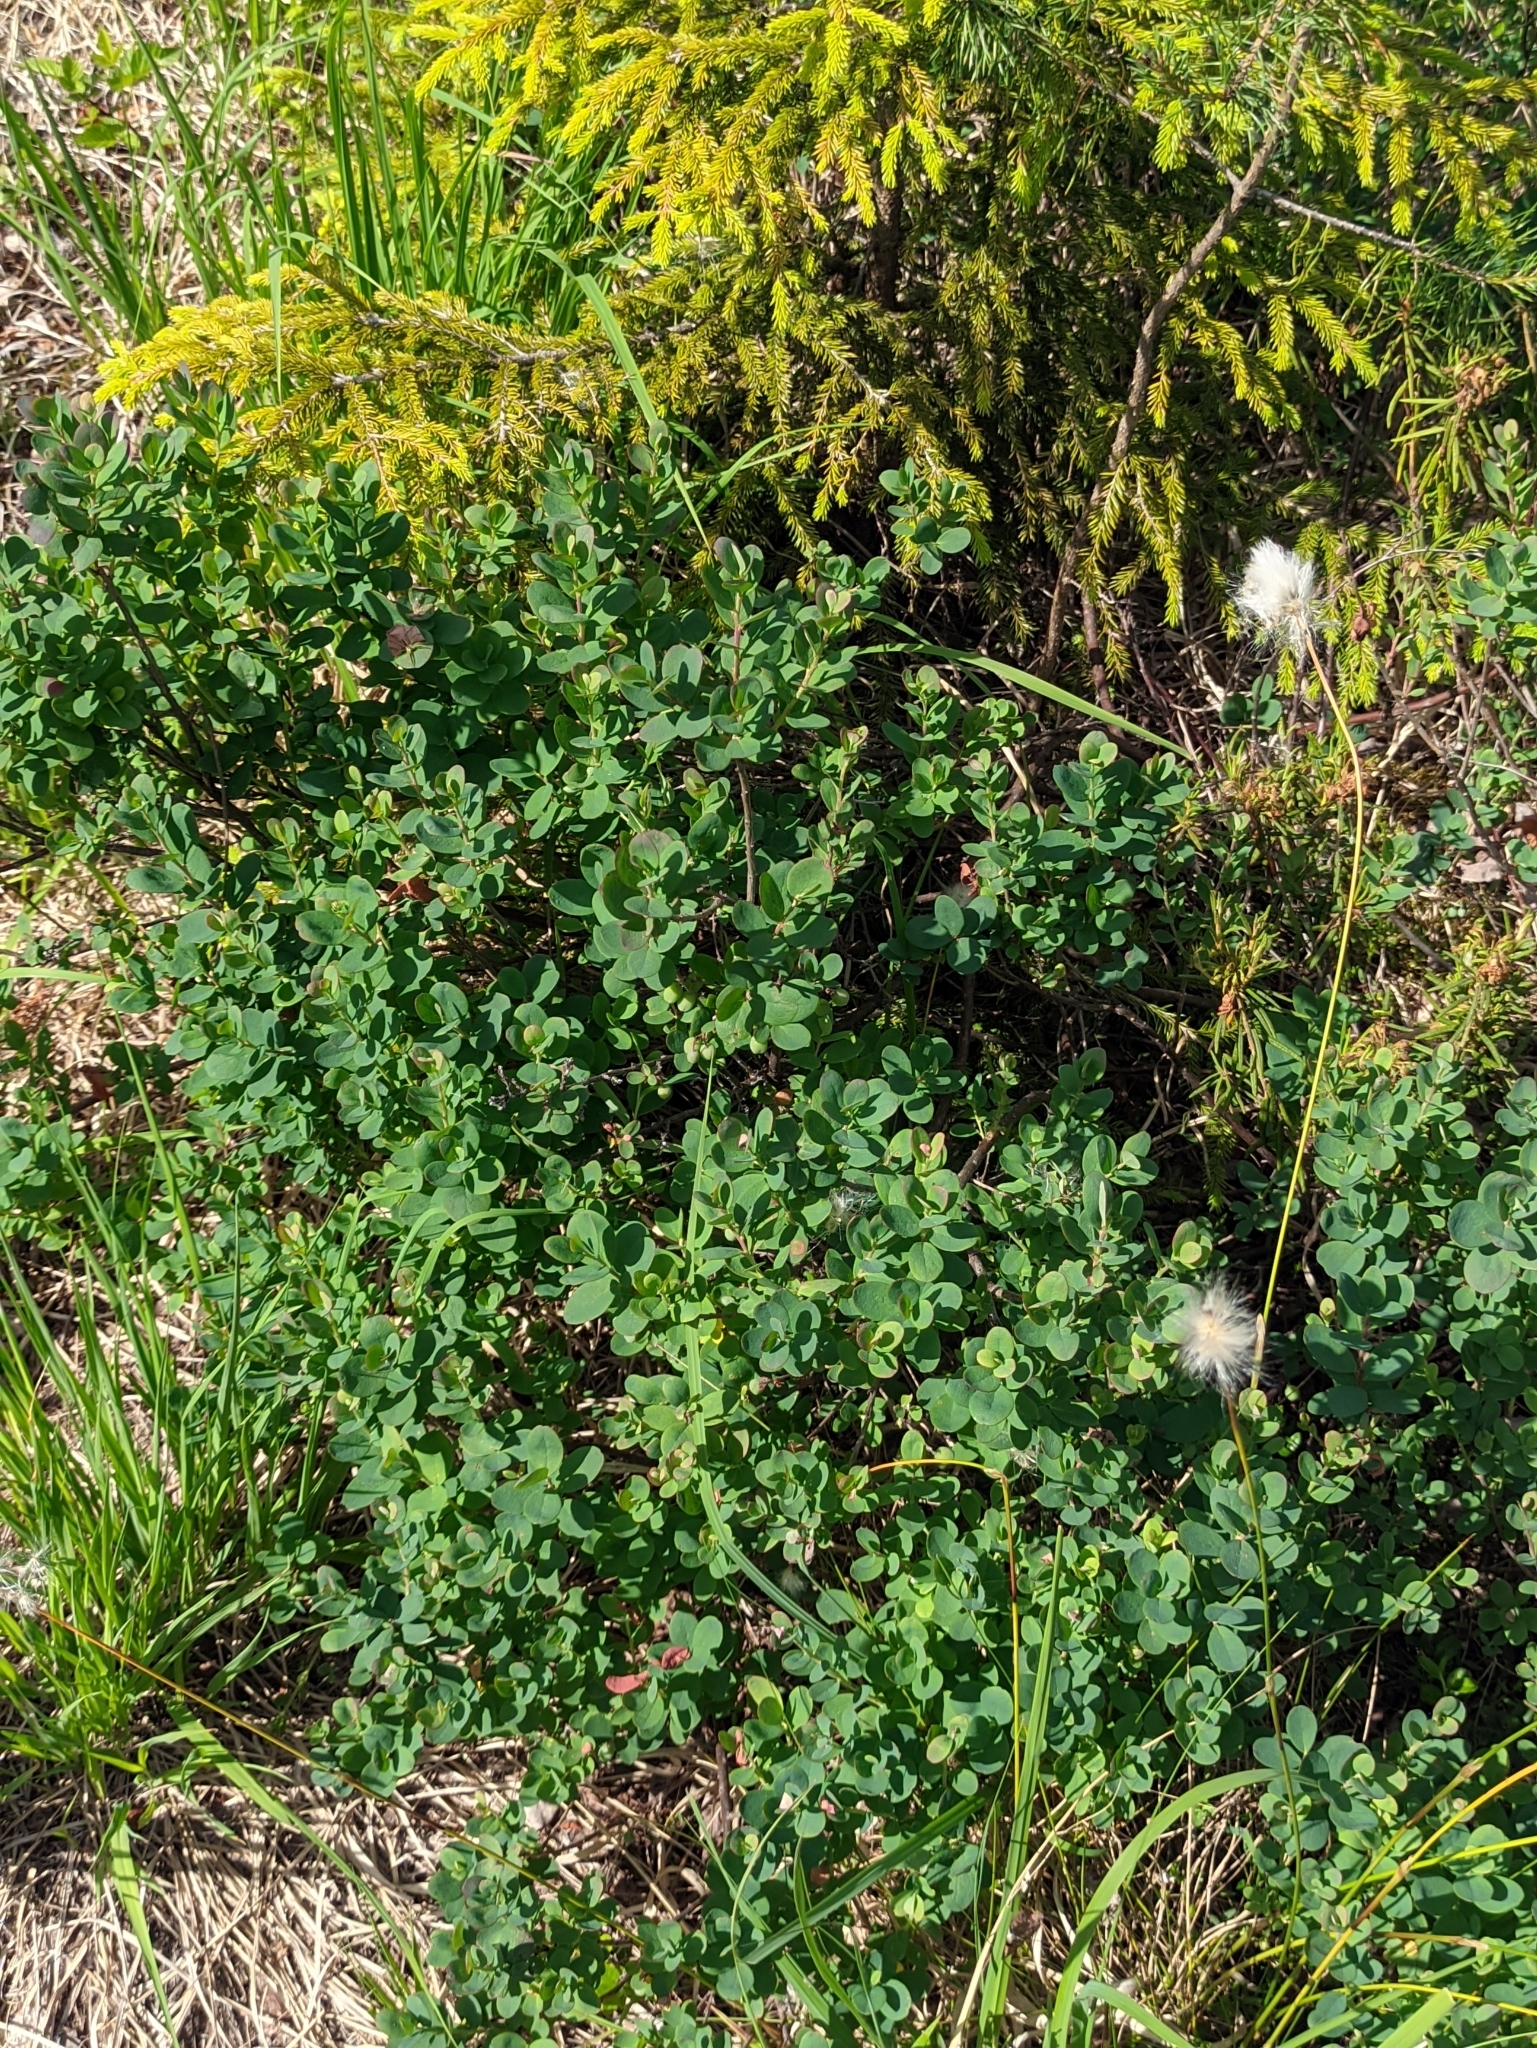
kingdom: Plantae
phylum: Tracheophyta
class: Magnoliopsida
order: Ericales
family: Ericaceae
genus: Vaccinium
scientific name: Vaccinium uliginosum
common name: Bog bilberry
